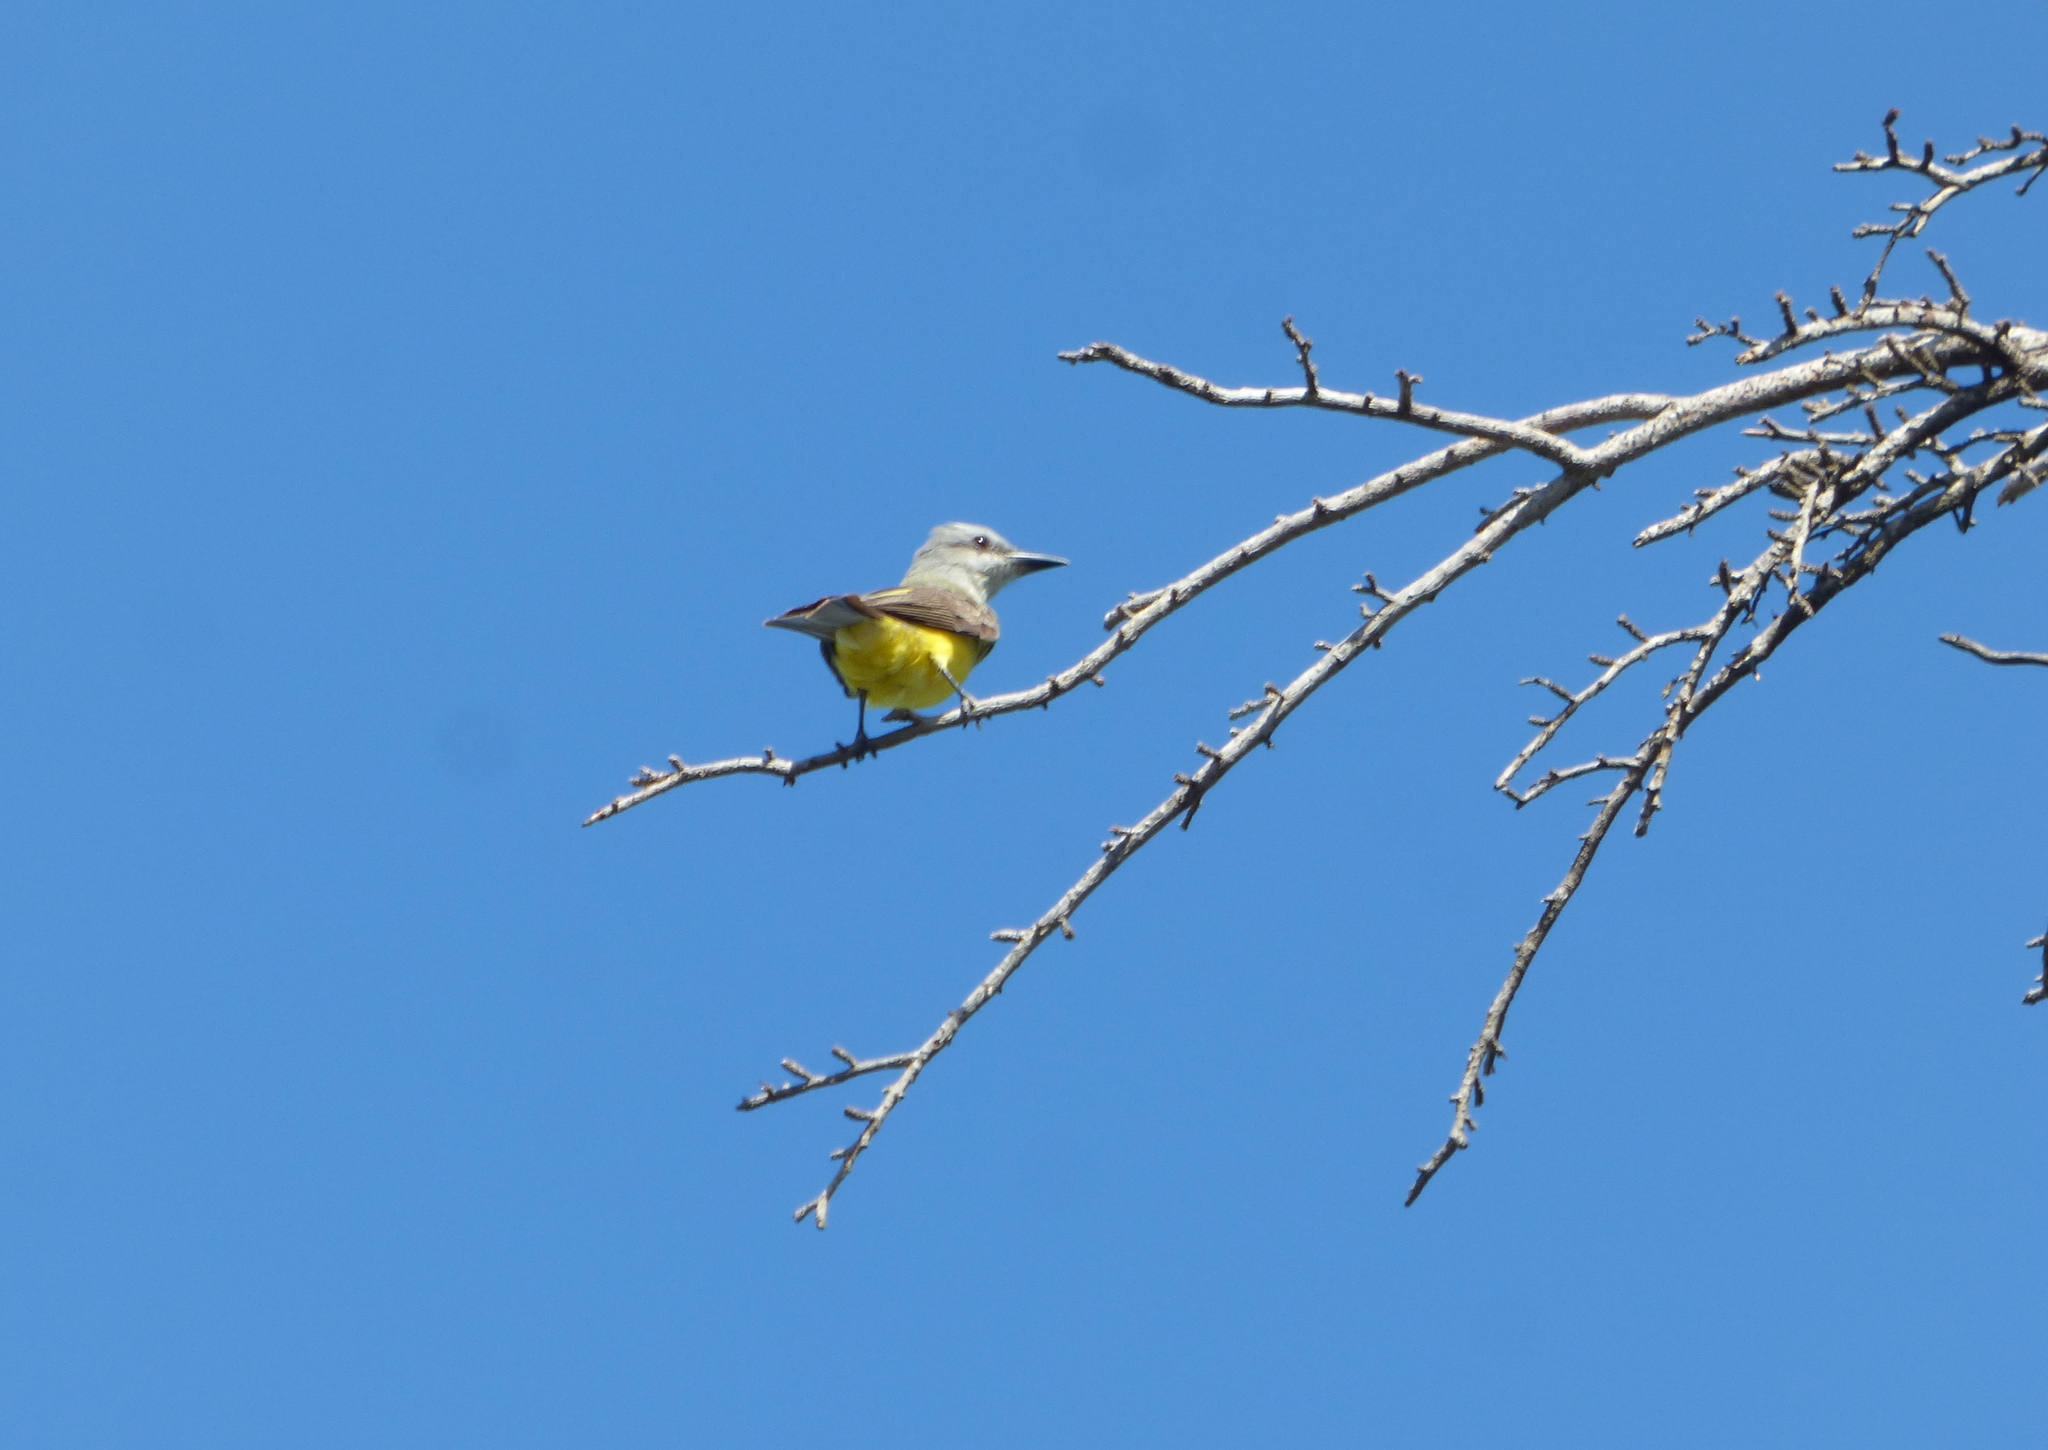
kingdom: Animalia
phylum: Chordata
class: Aves
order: Passeriformes
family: Tyrannidae
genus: Tyrannus
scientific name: Tyrannus melancholicus
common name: Tropical kingbird
